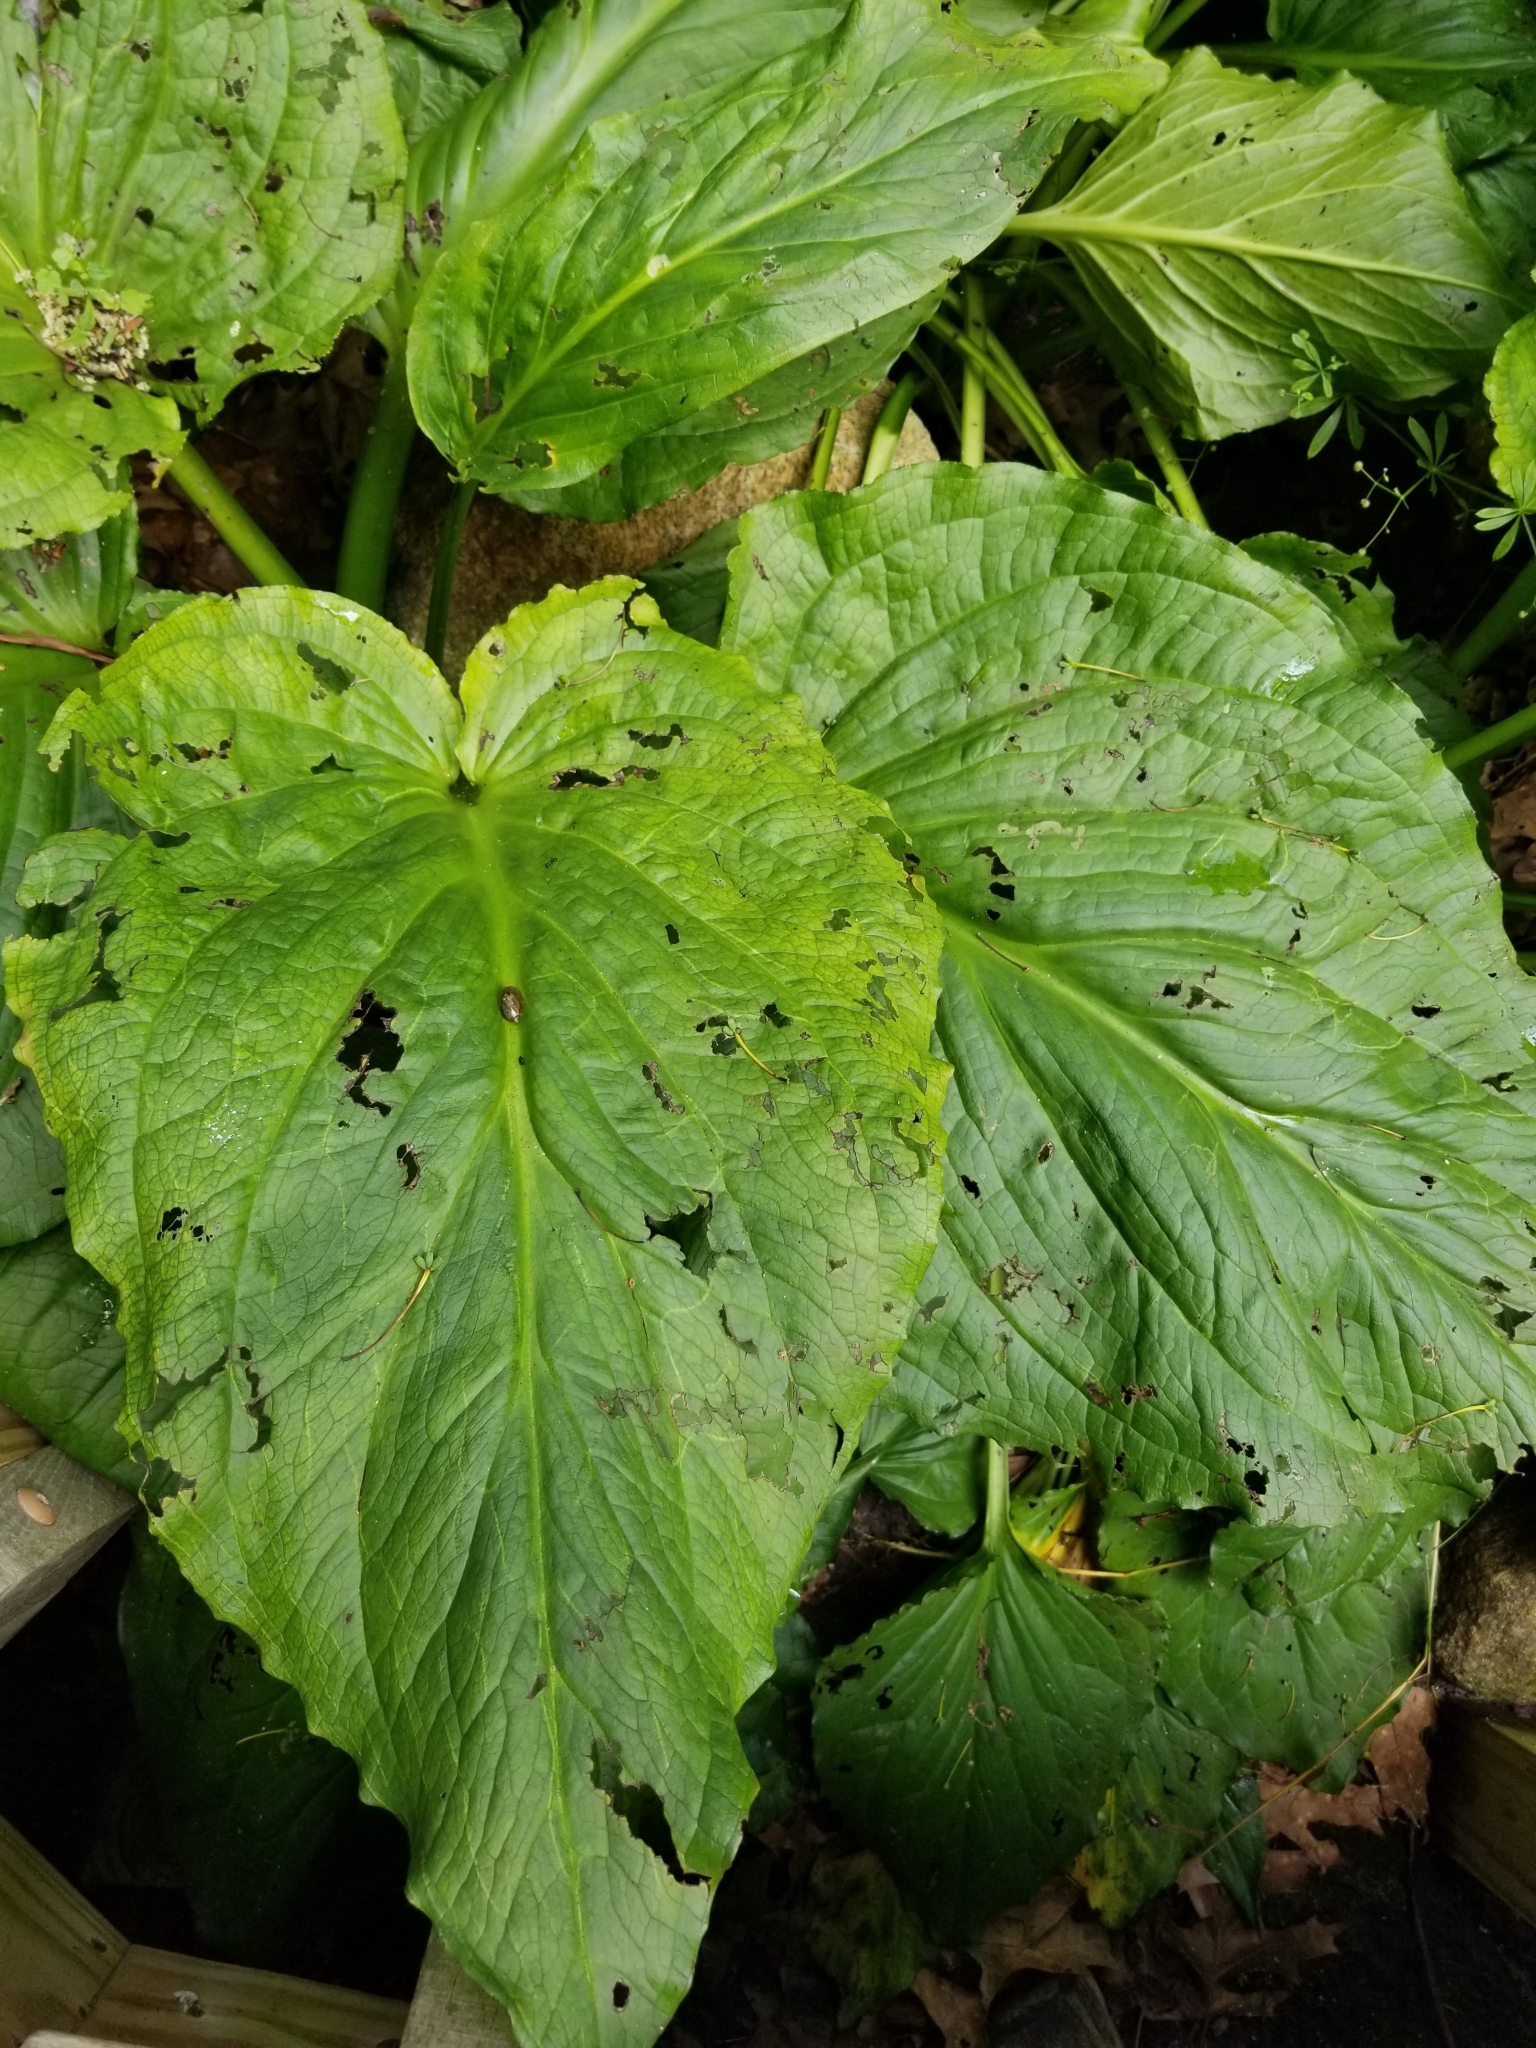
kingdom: Plantae
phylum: Tracheophyta
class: Liliopsida
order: Alismatales
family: Araceae
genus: Symplocarpus
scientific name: Symplocarpus foetidus
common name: Eastern skunk cabbage
